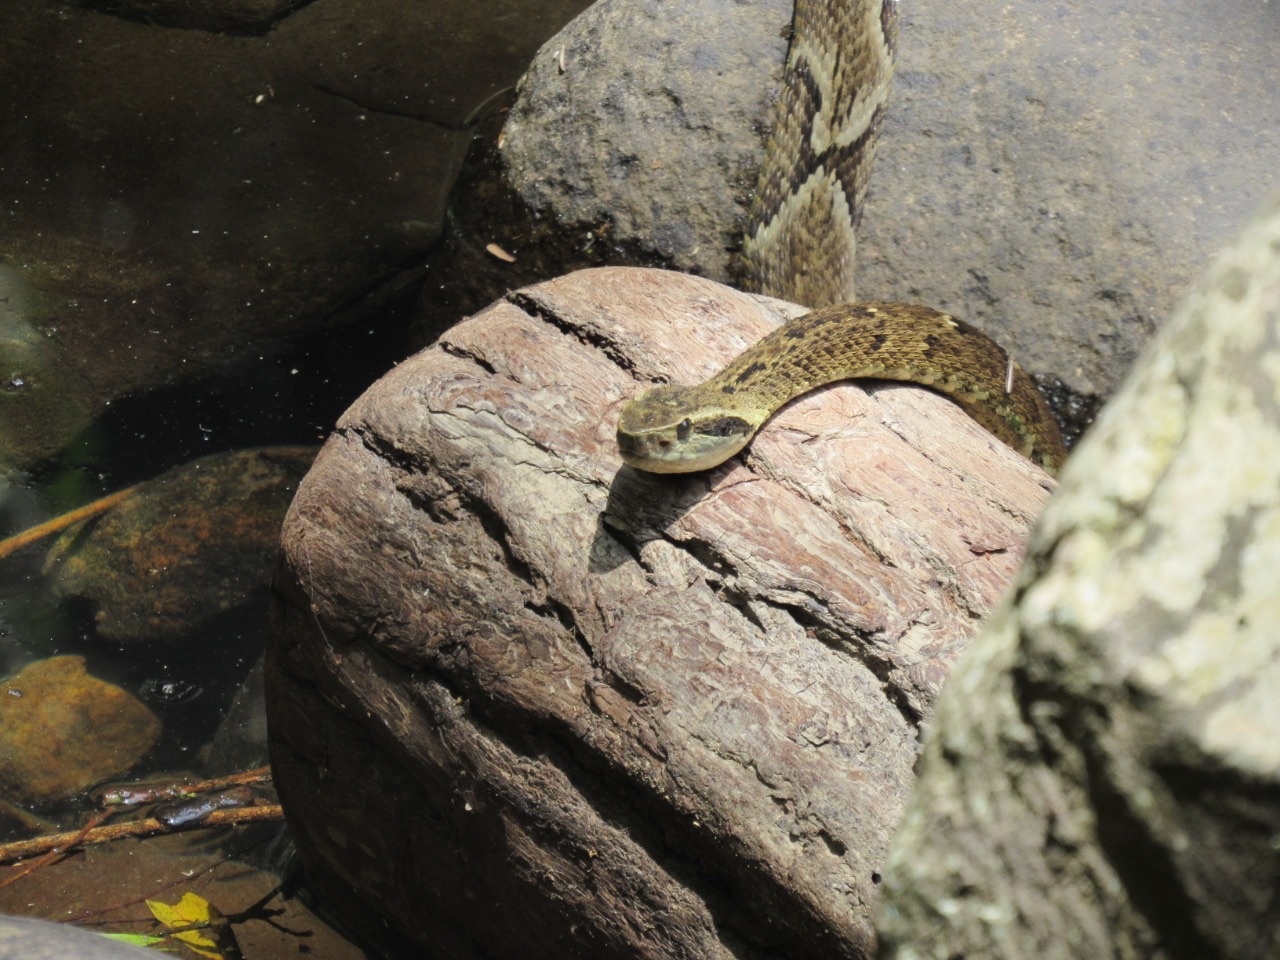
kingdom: Animalia
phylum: Chordata
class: Squamata
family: Viperidae
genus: Bothrops
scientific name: Bothrops jararaca
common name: Jararaca
